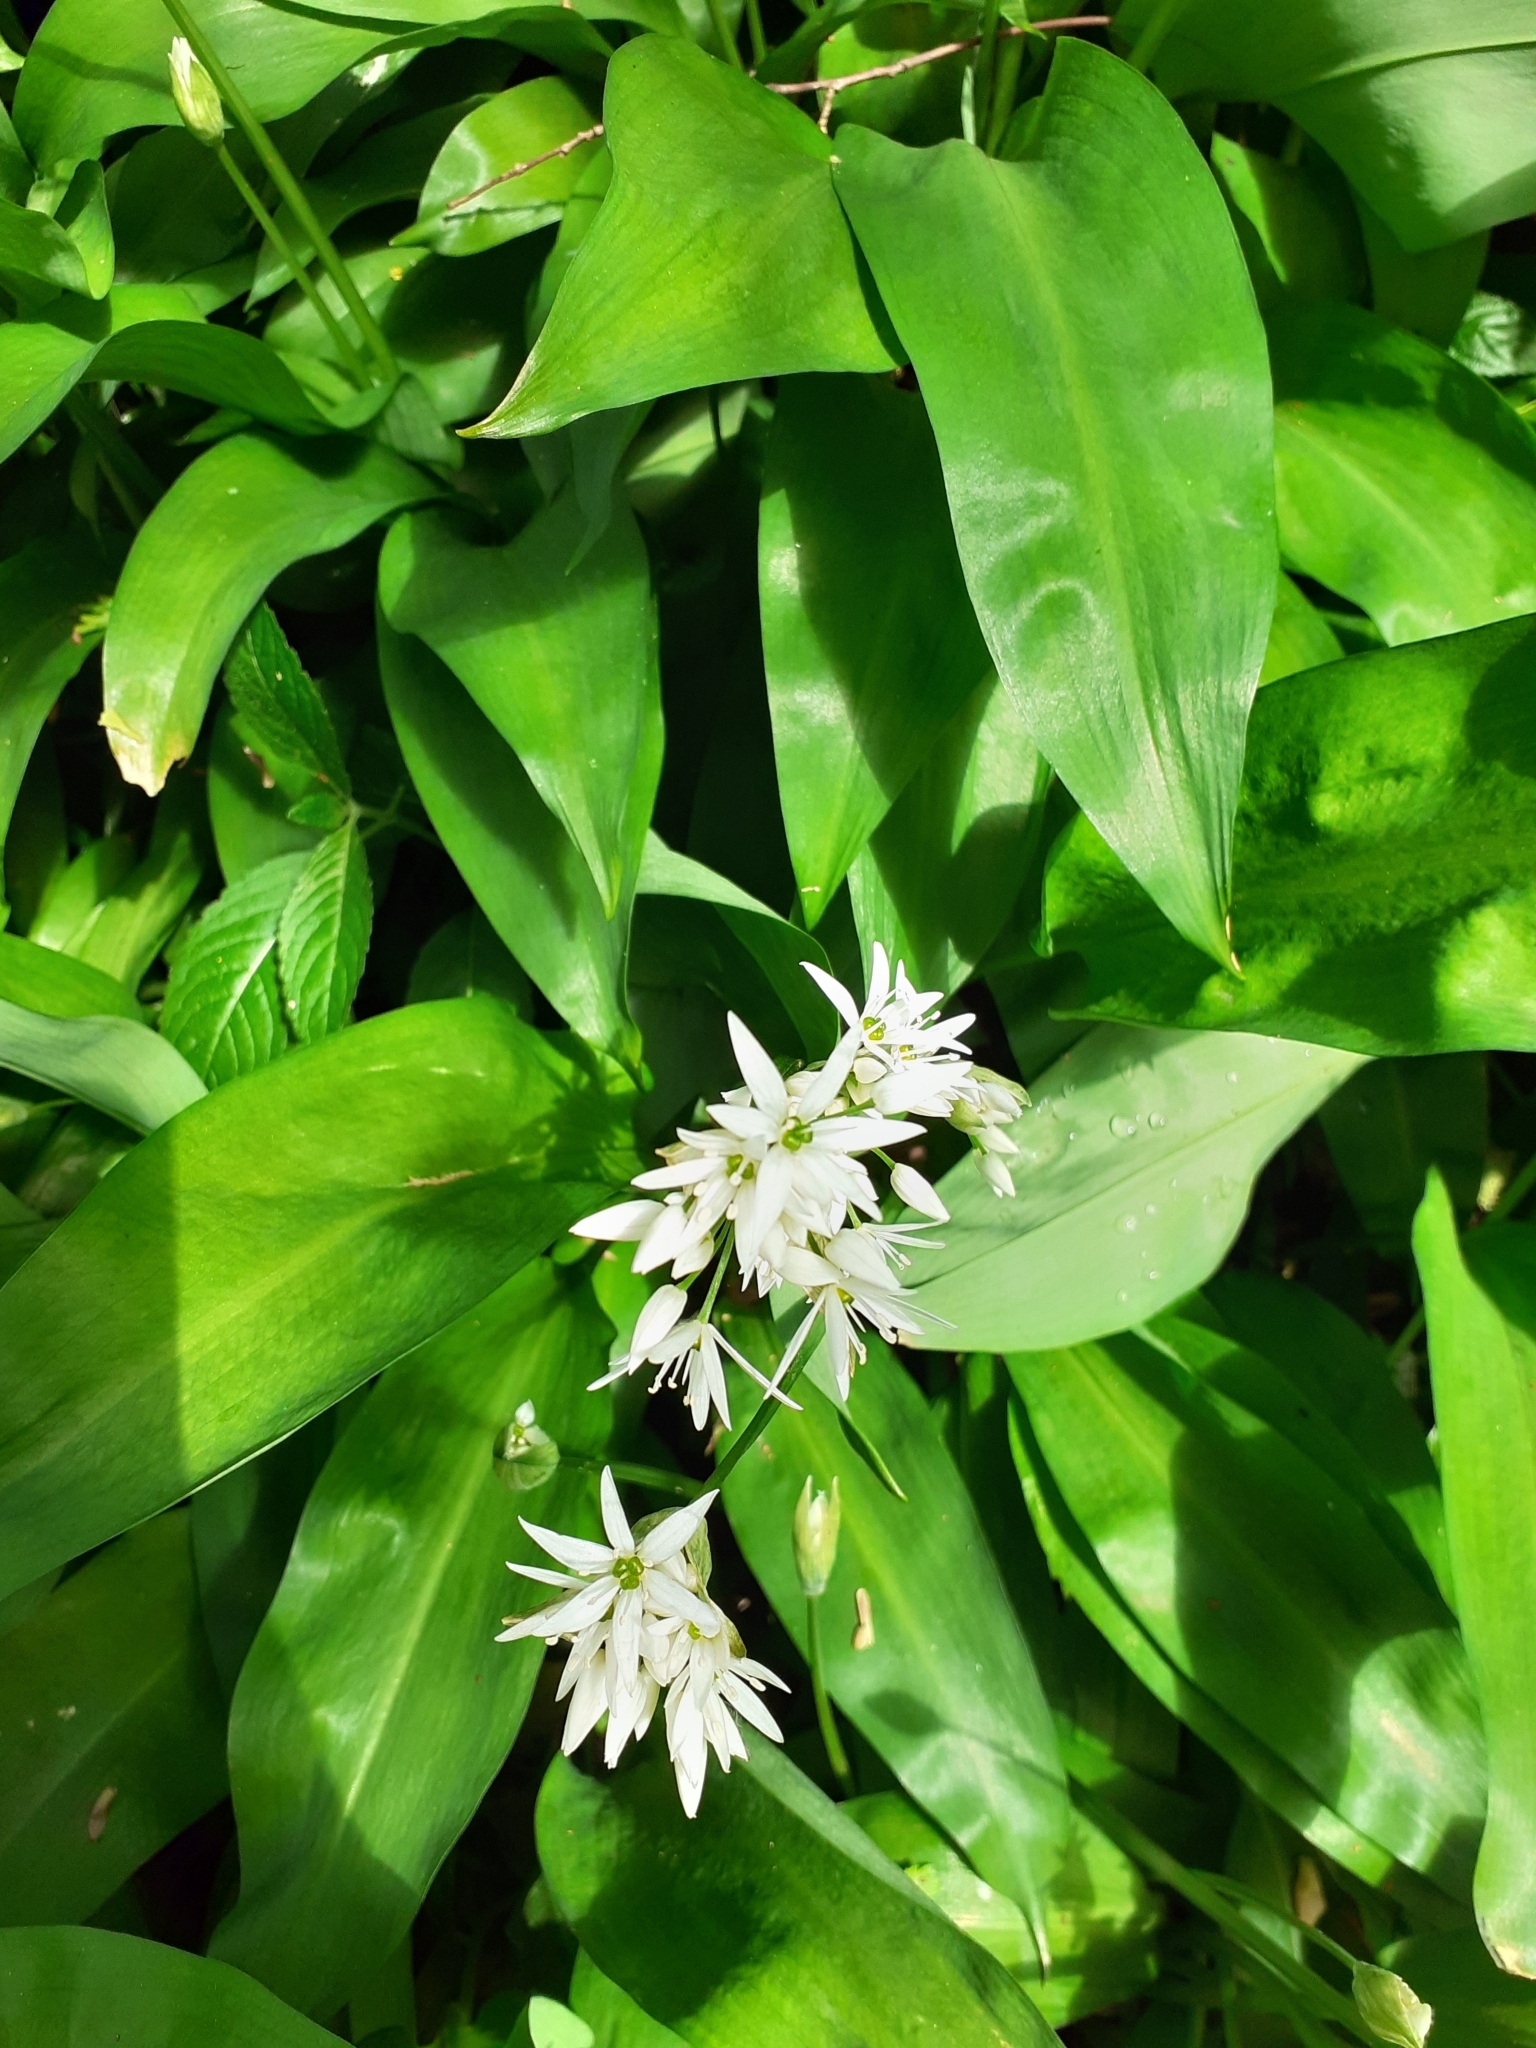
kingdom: Plantae
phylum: Tracheophyta
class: Liliopsida
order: Asparagales
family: Amaryllidaceae
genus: Allium
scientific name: Allium ursinum
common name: Ramsons
